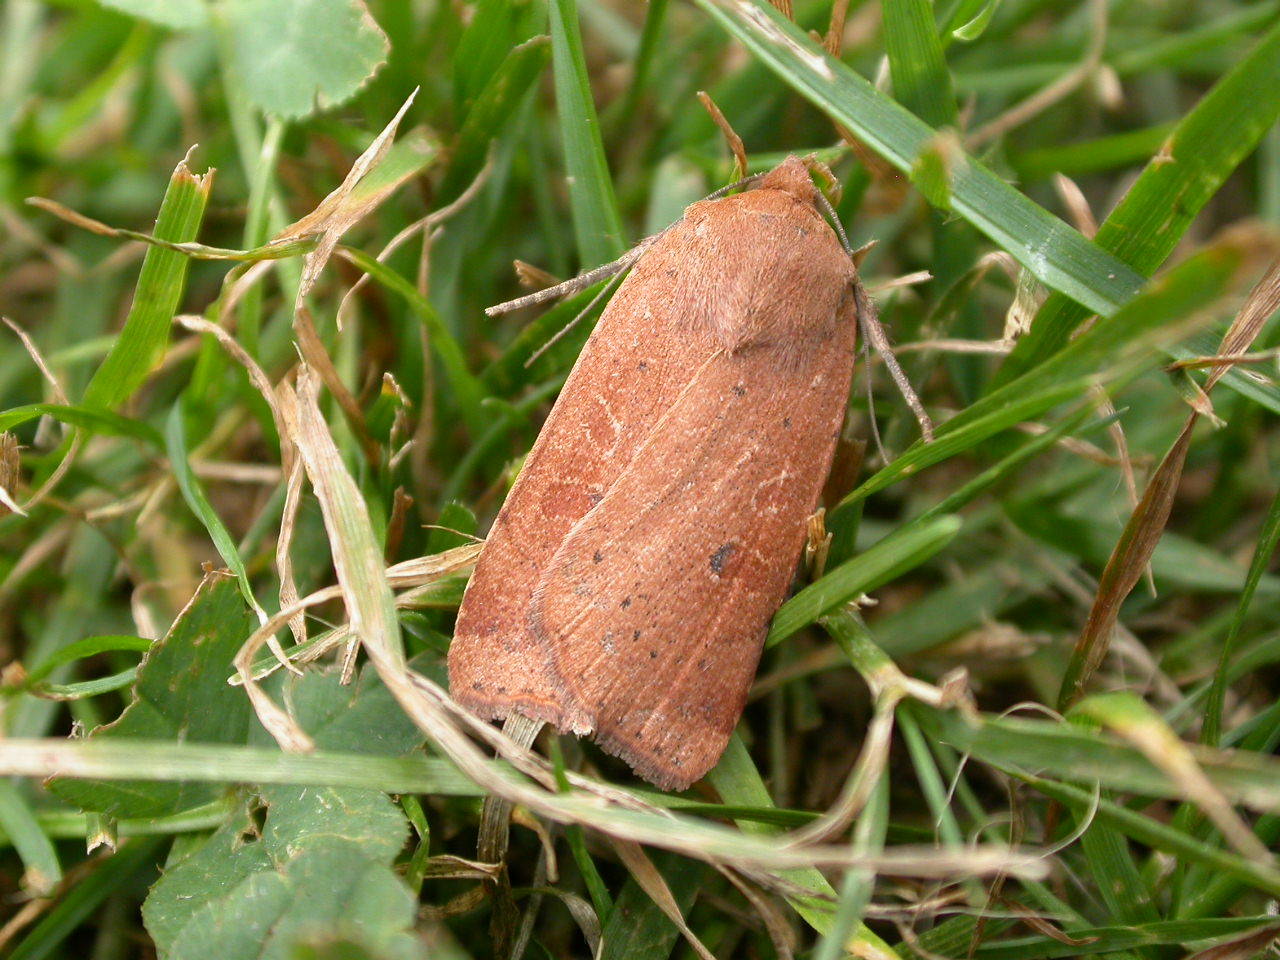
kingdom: Animalia
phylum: Arthropoda
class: Insecta
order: Lepidoptera
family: Noctuidae
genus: Noctua
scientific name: Noctua comes
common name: Lesser yellow underwing
